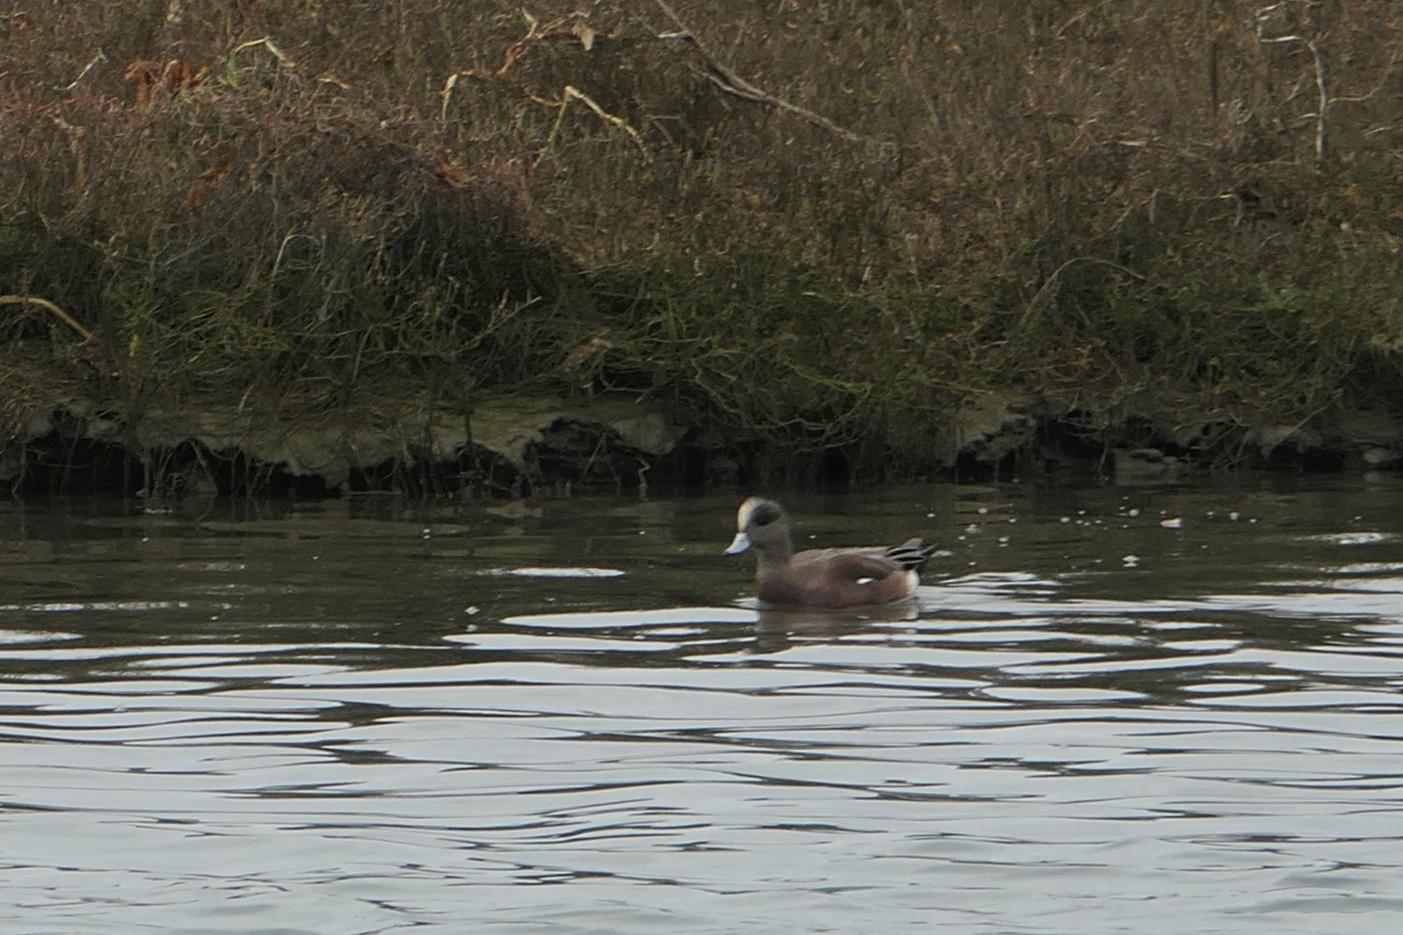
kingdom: Animalia
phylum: Chordata
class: Aves
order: Anseriformes
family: Anatidae
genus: Mareca
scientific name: Mareca americana
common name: American wigeon
